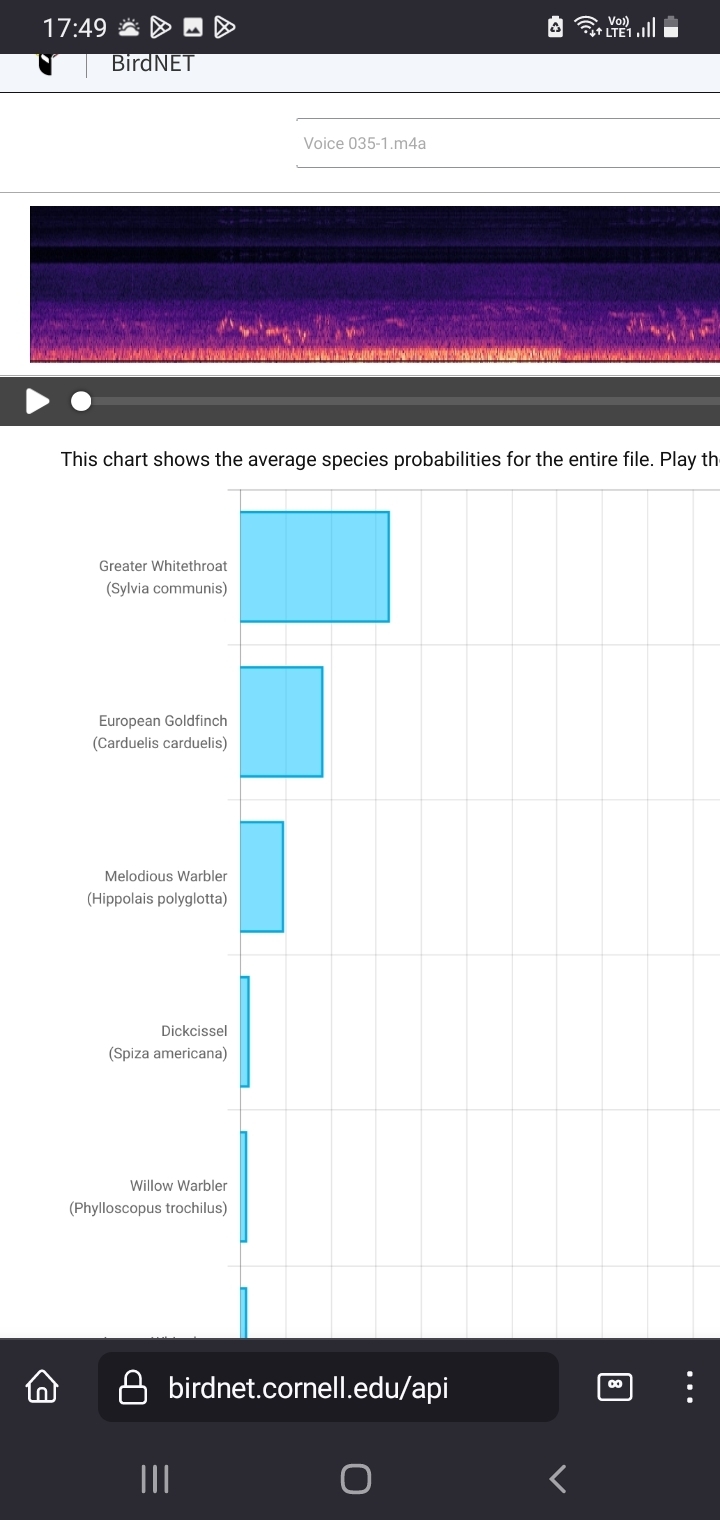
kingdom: Animalia
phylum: Chordata
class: Aves
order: Passeriformes
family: Sylviidae
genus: Sylvia
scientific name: Sylvia communis
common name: Common whitethroat
